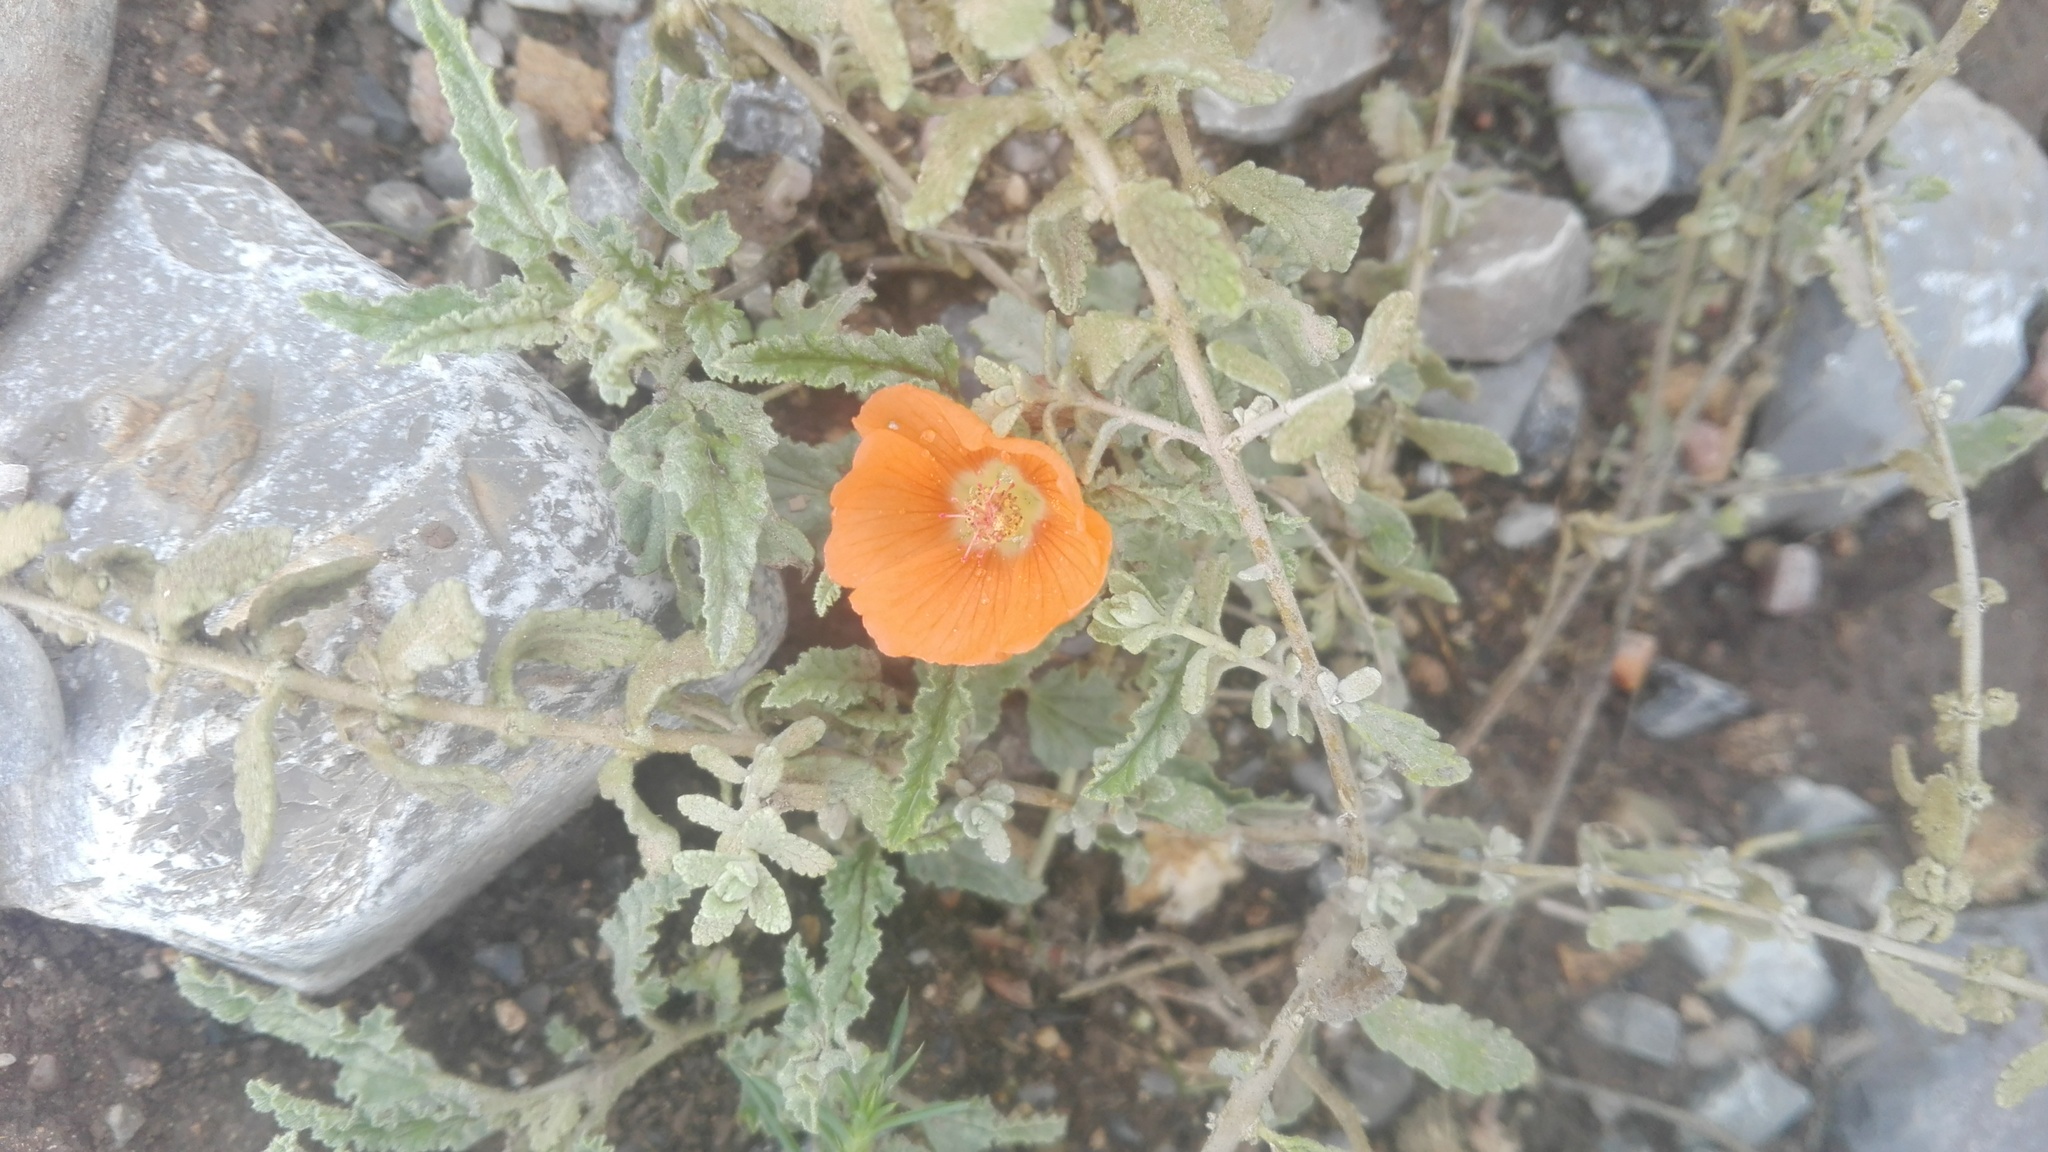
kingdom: Plantae
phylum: Tracheophyta
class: Magnoliopsida
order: Malvales
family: Malvaceae
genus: Sphaeralcea
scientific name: Sphaeralcea ambigua
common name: Apricot globe-mallow
